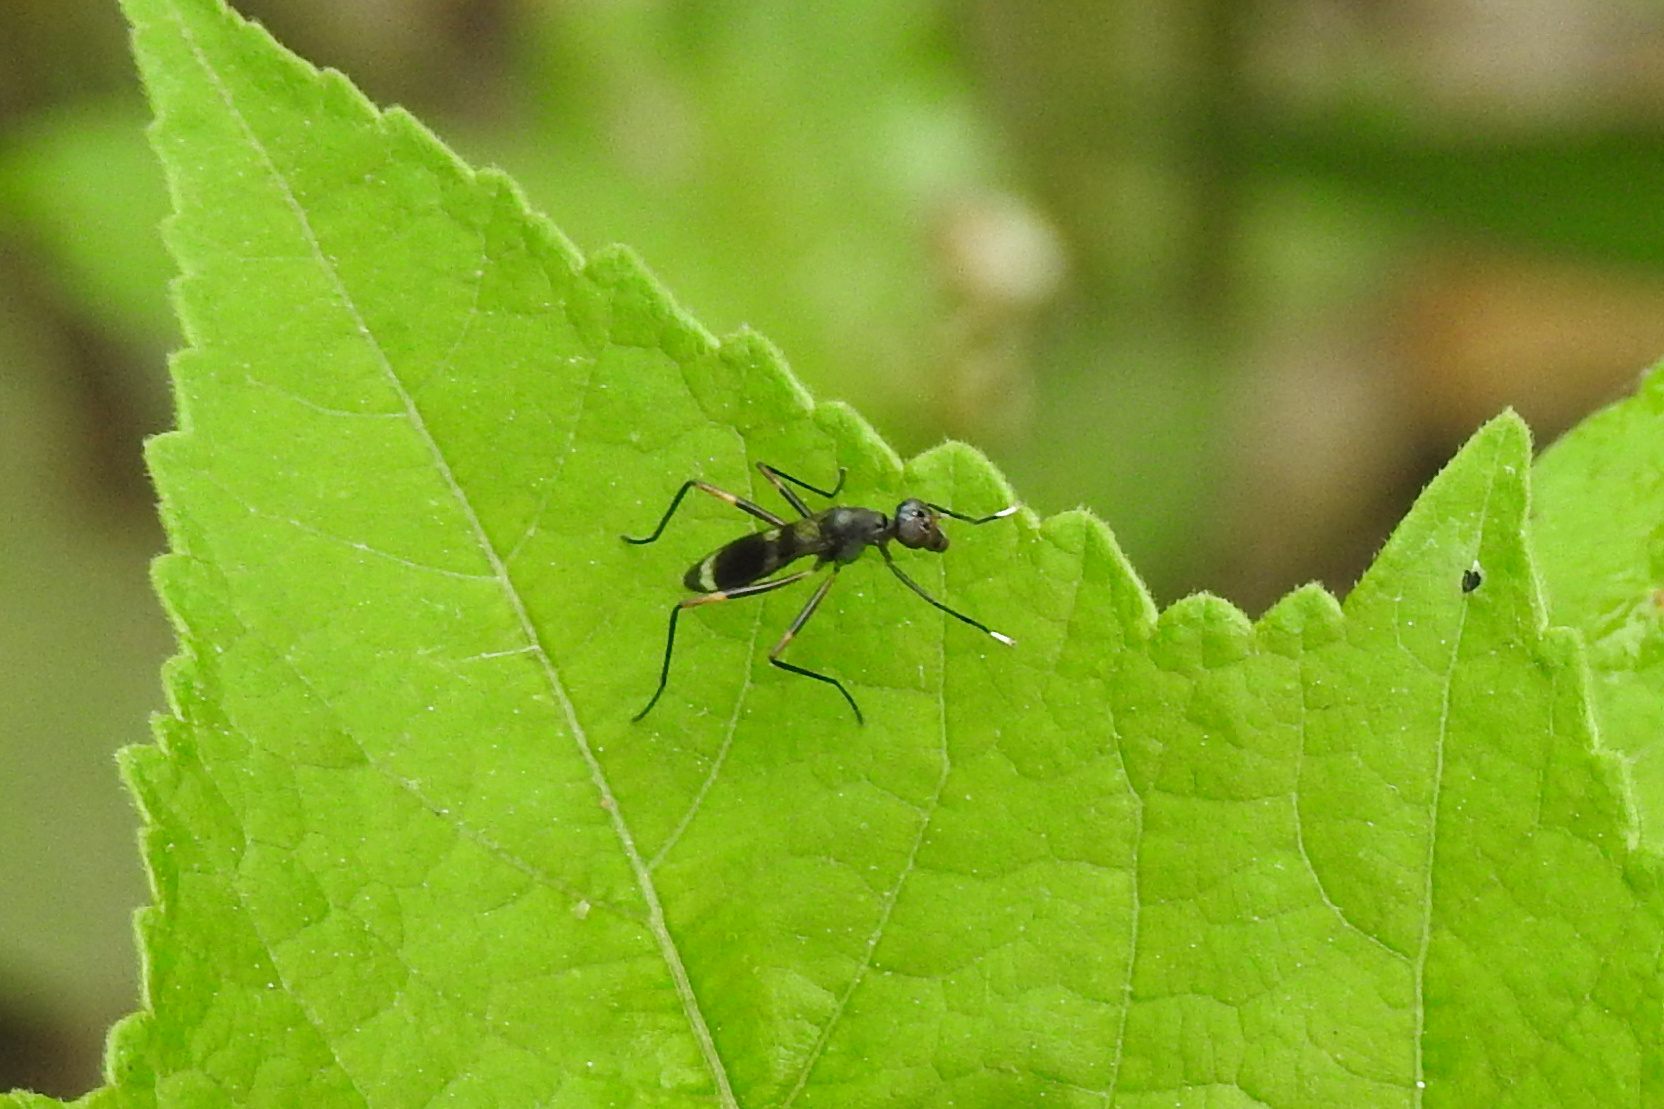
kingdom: Animalia
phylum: Arthropoda
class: Insecta
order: Diptera
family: Micropezidae
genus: Taeniaptera
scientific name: Taeniaptera trivittata
